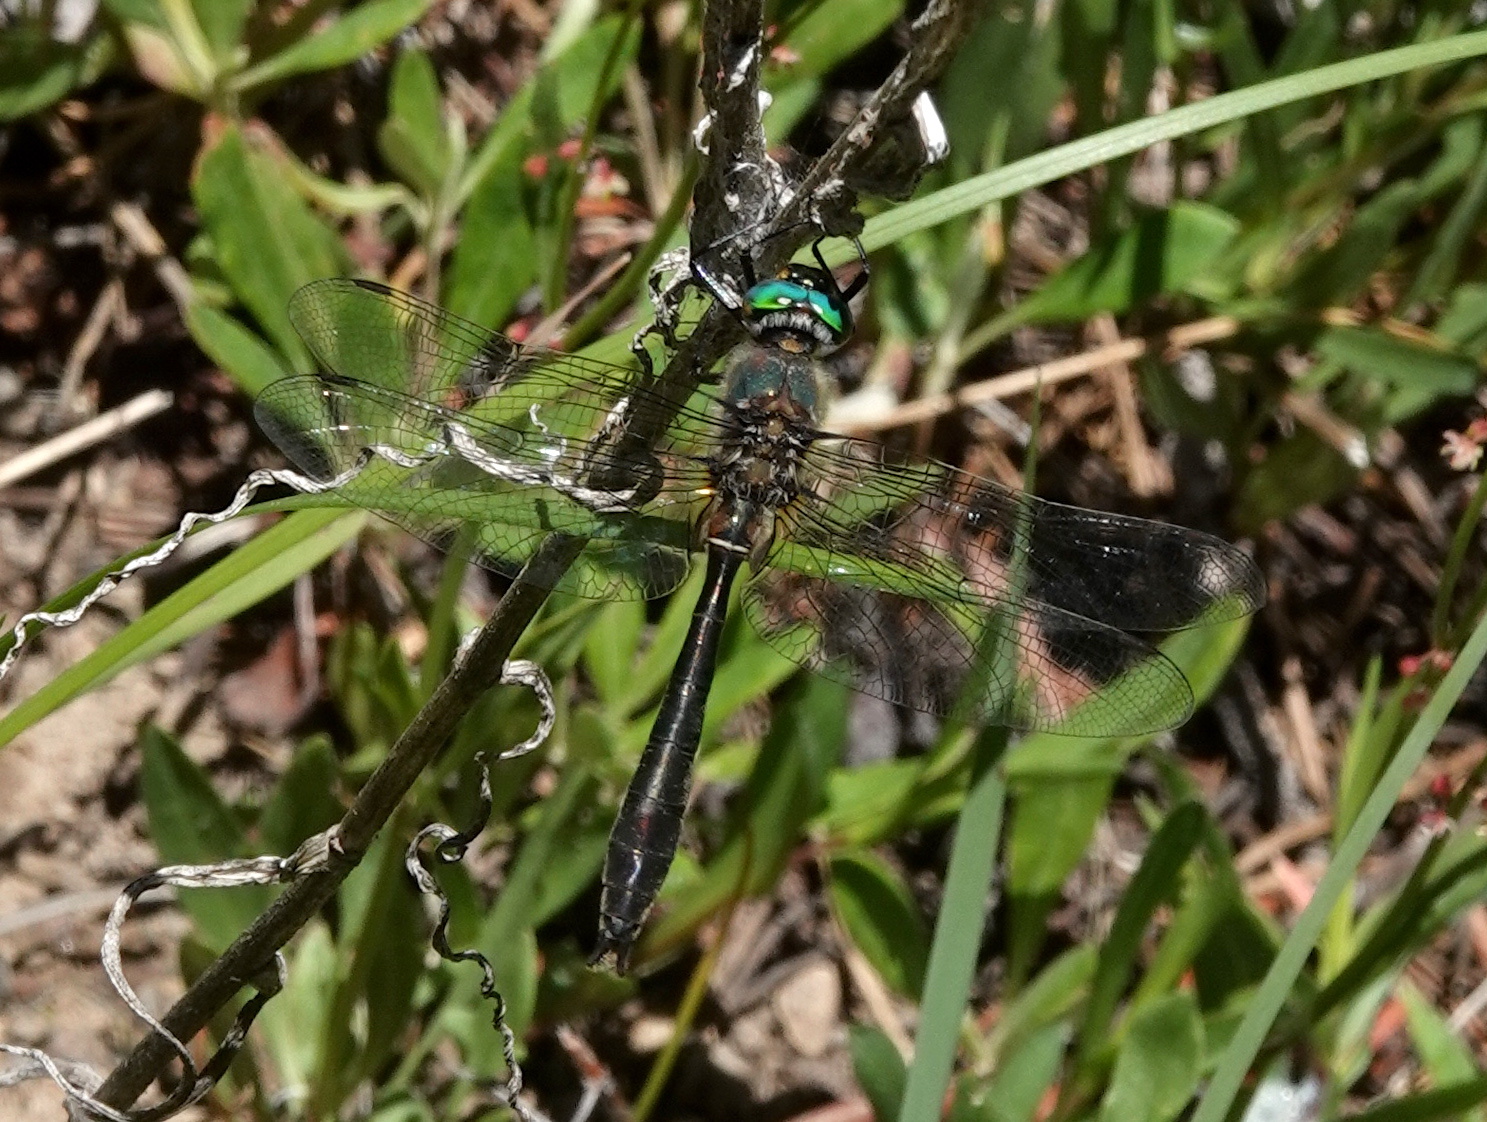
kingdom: Animalia
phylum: Arthropoda
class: Insecta
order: Odonata
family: Corduliidae
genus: Cordulia
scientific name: Cordulia shurtleffii
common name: American emerald
